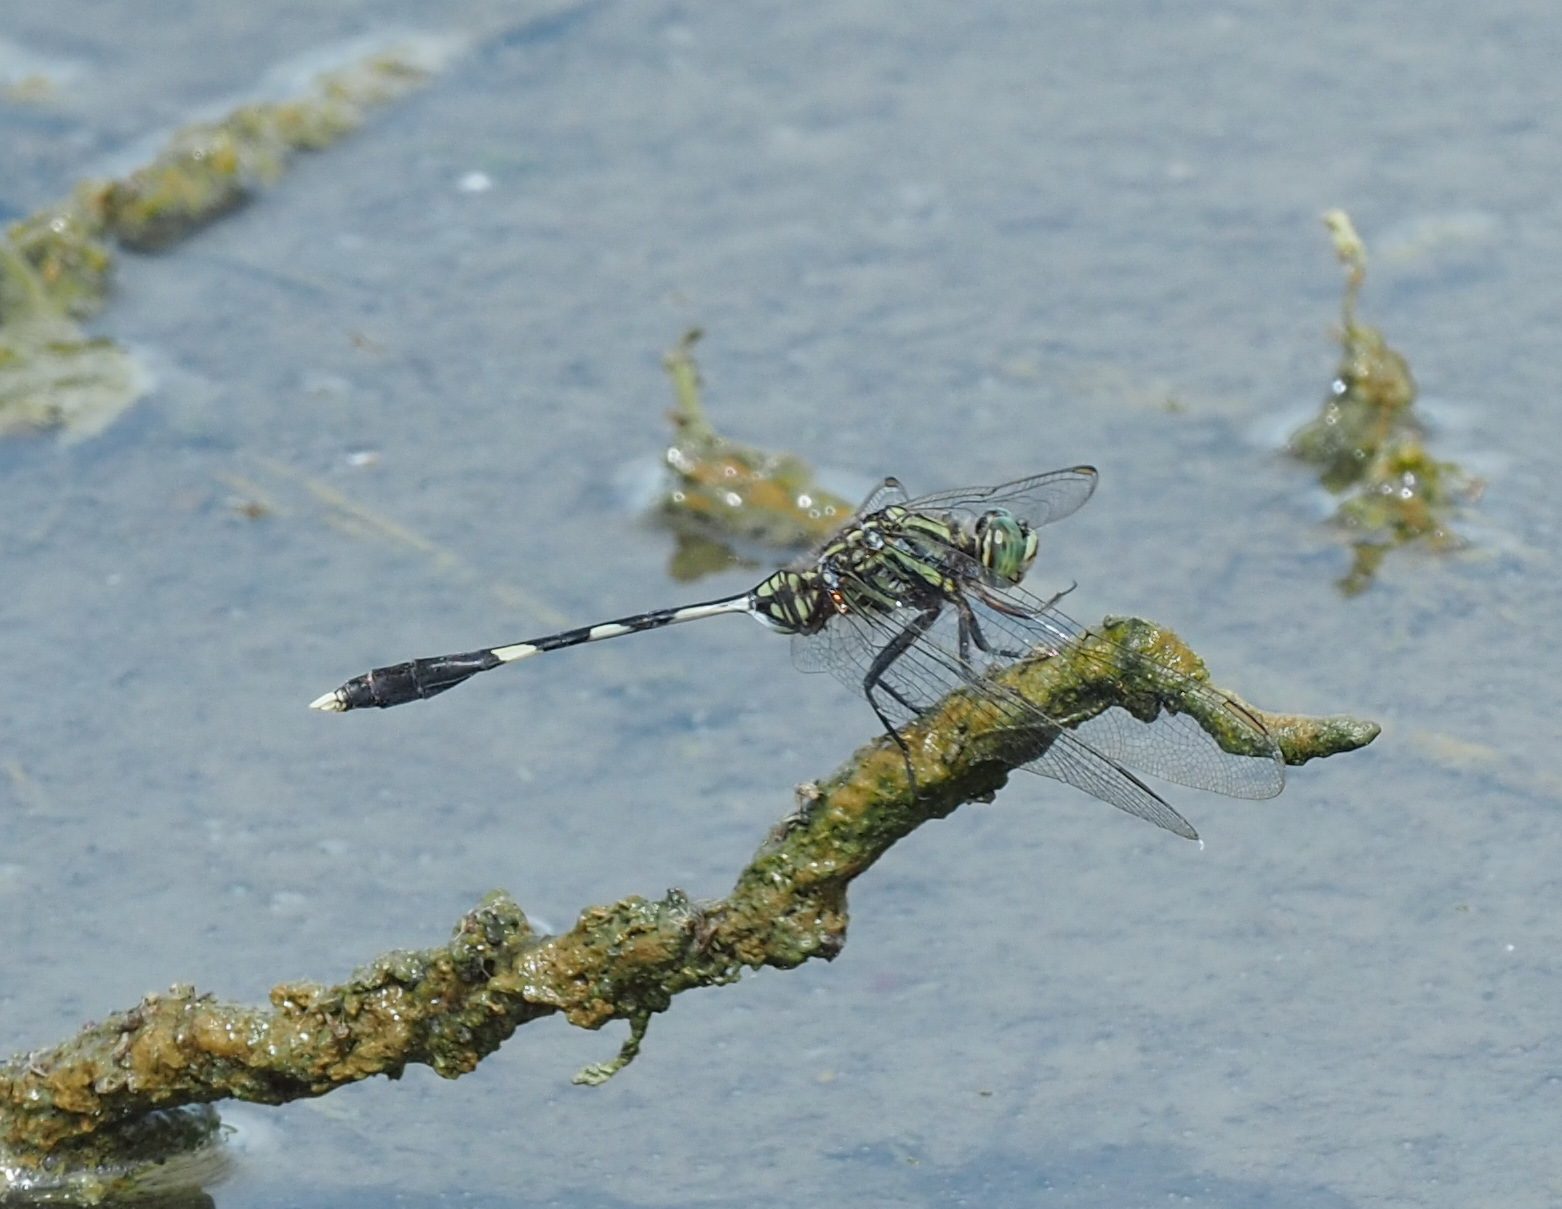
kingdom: Animalia
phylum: Arthropoda
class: Insecta
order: Odonata
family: Libellulidae
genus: Orthetrum
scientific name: Orthetrum sabina
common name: Slender skimmer
